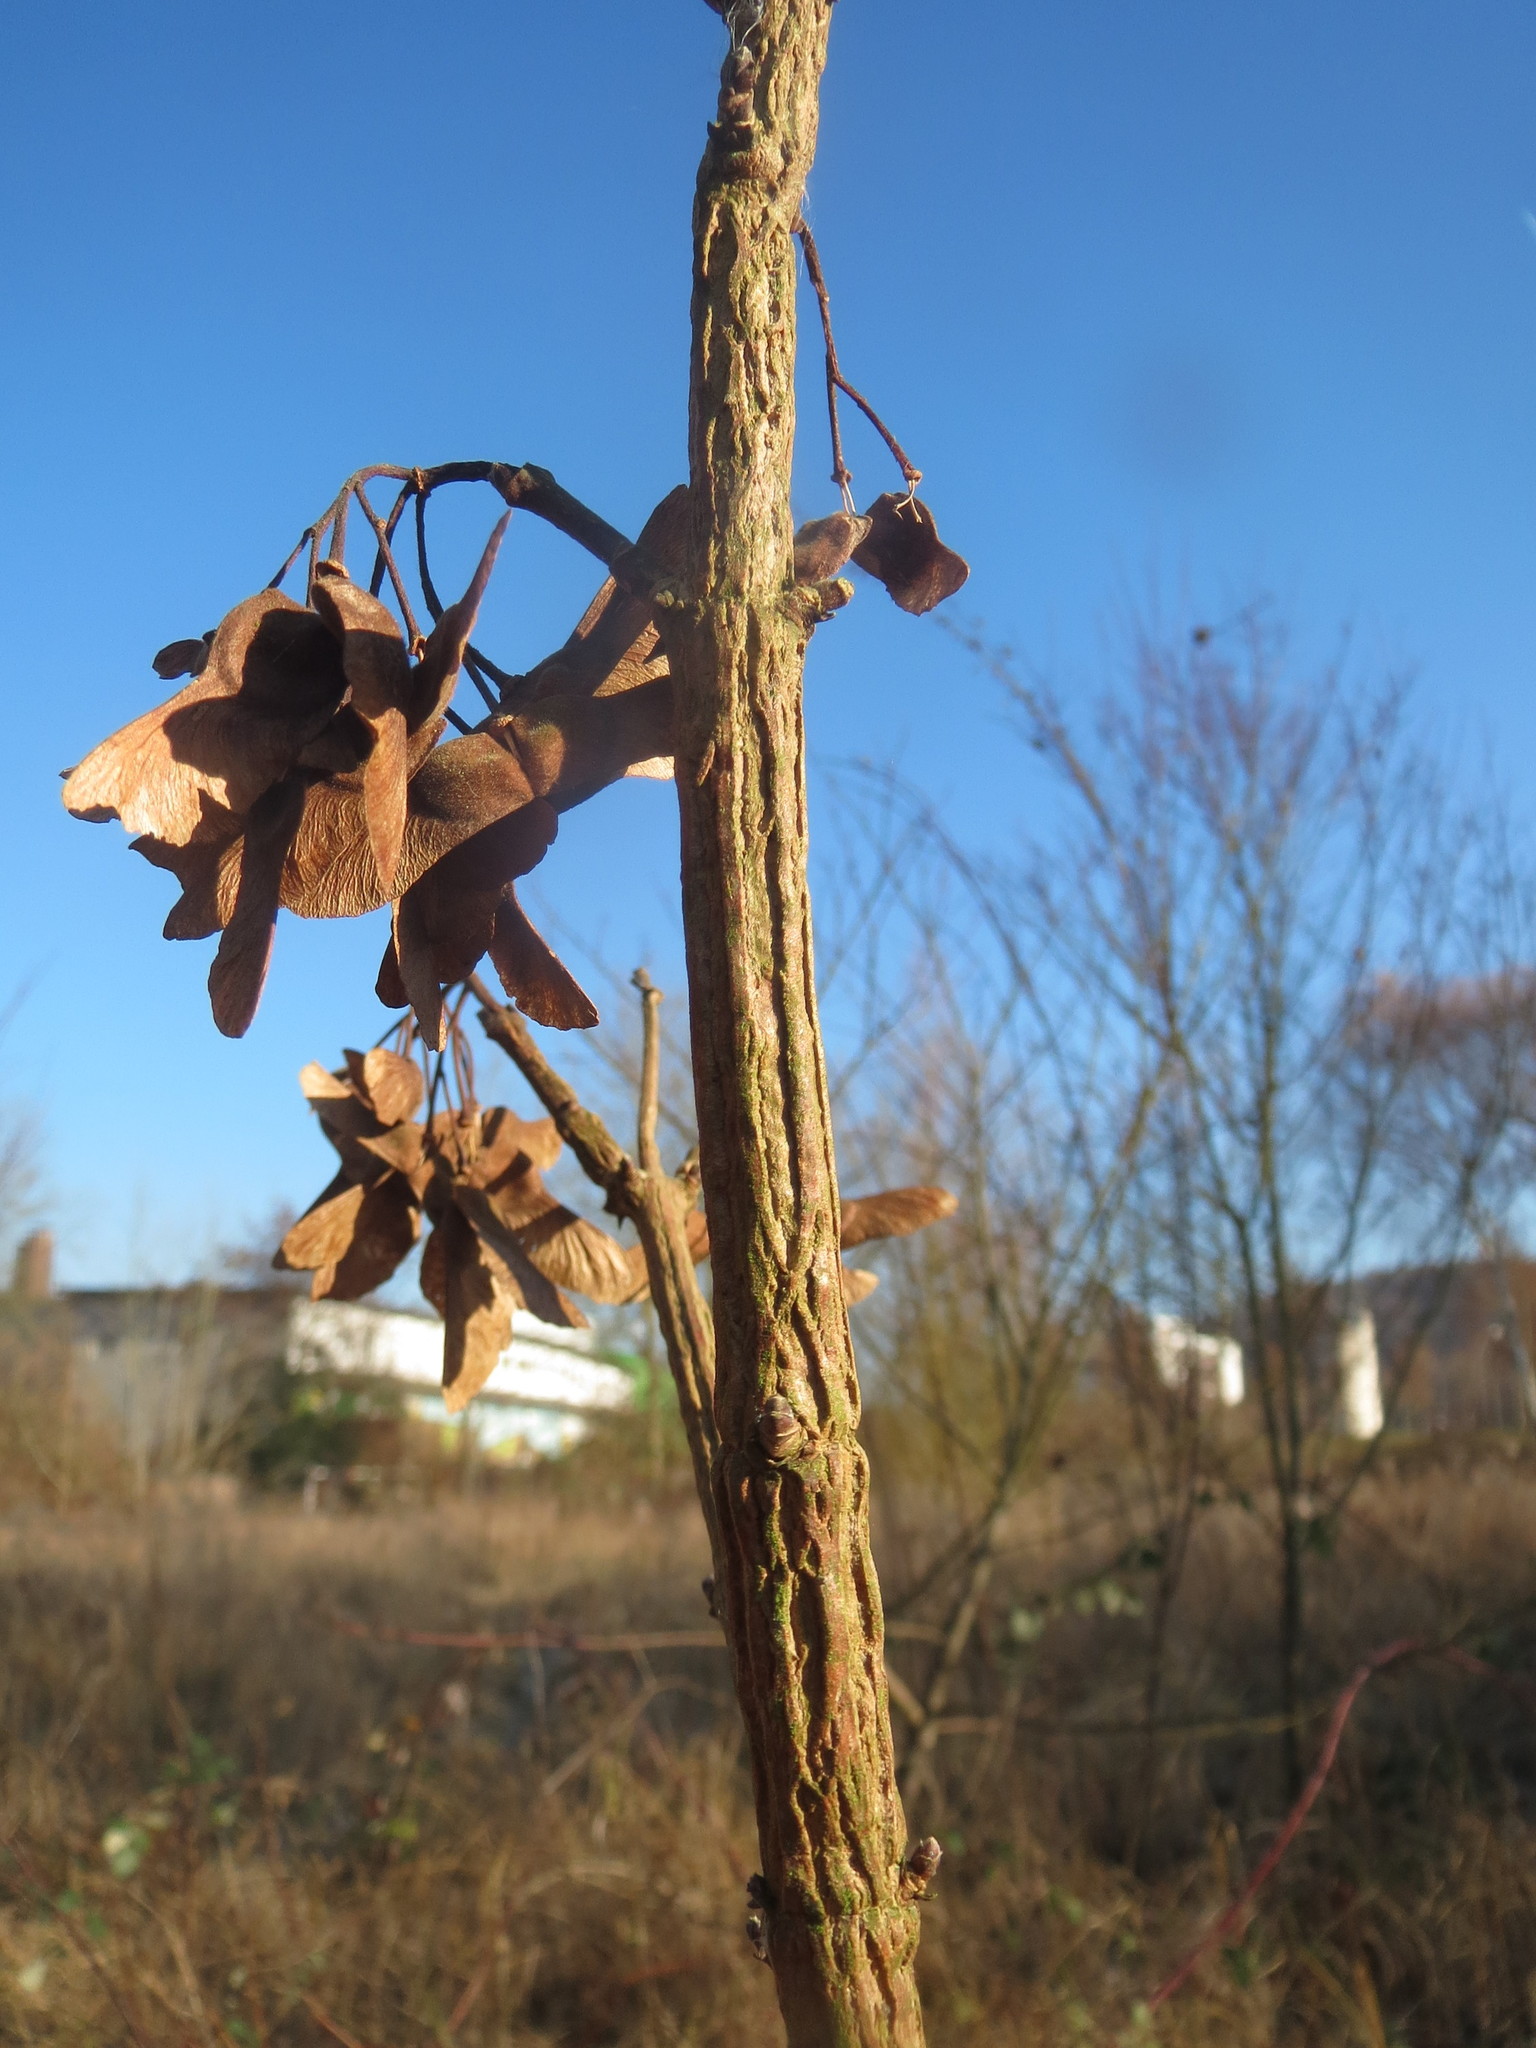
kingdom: Plantae
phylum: Tracheophyta
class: Magnoliopsida
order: Sapindales
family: Sapindaceae
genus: Acer
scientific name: Acer campestre
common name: Field maple
